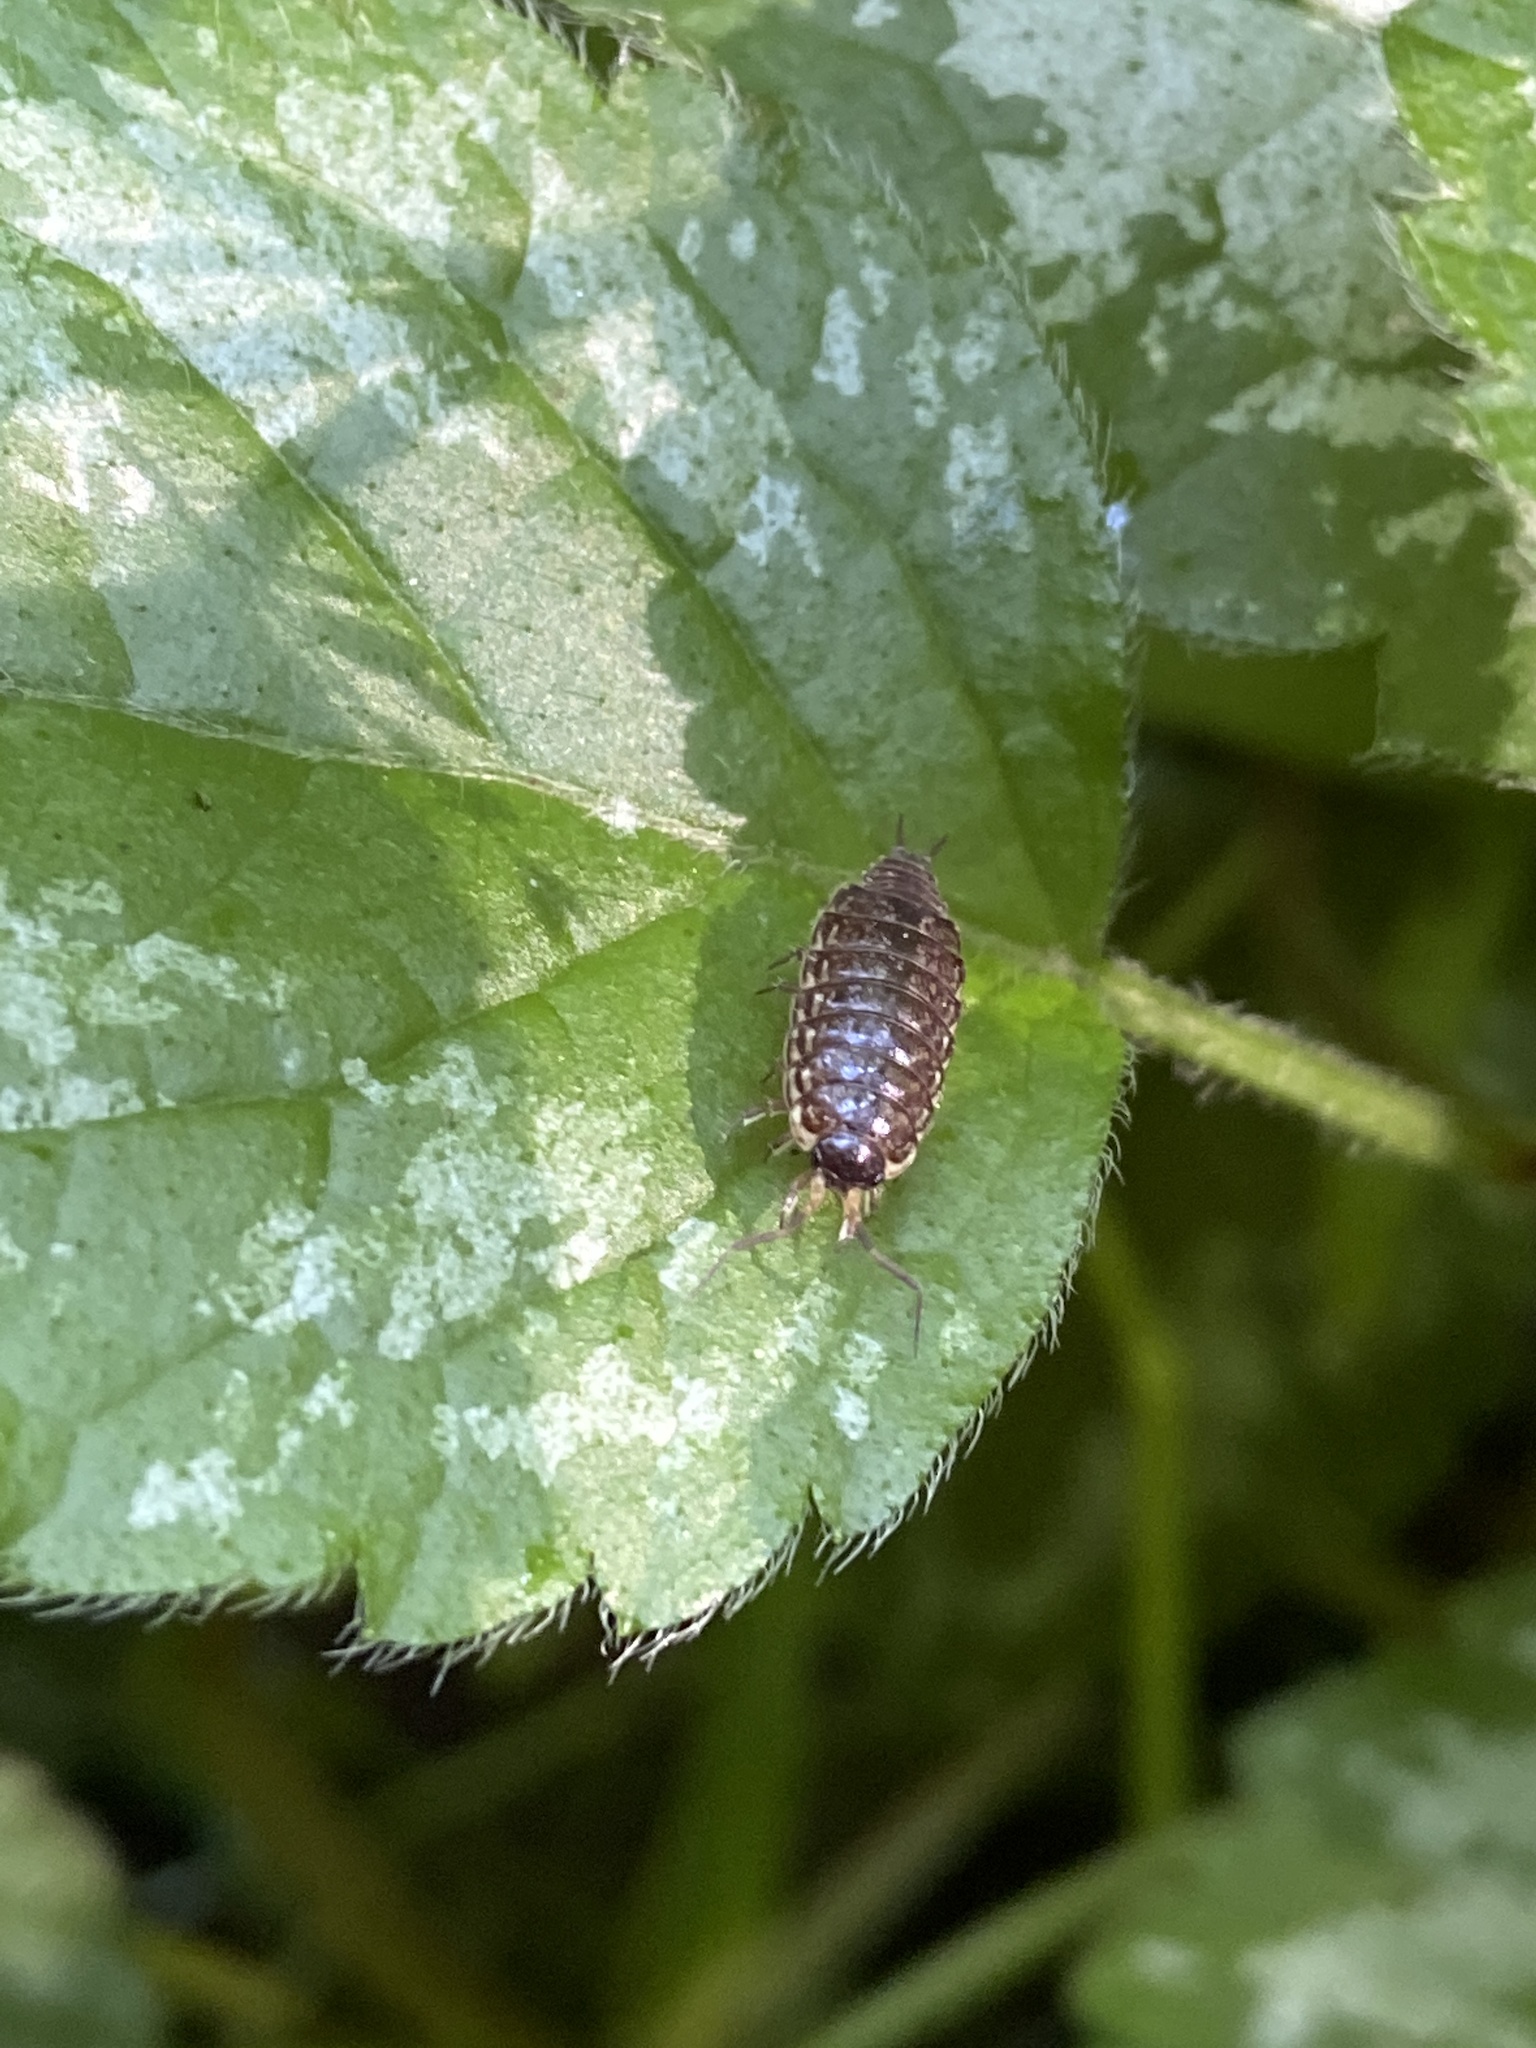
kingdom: Animalia
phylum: Arthropoda
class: Malacostraca
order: Isopoda
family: Philosciidae
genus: Philoscia
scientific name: Philoscia muscorum
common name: Common striped woodlouse
